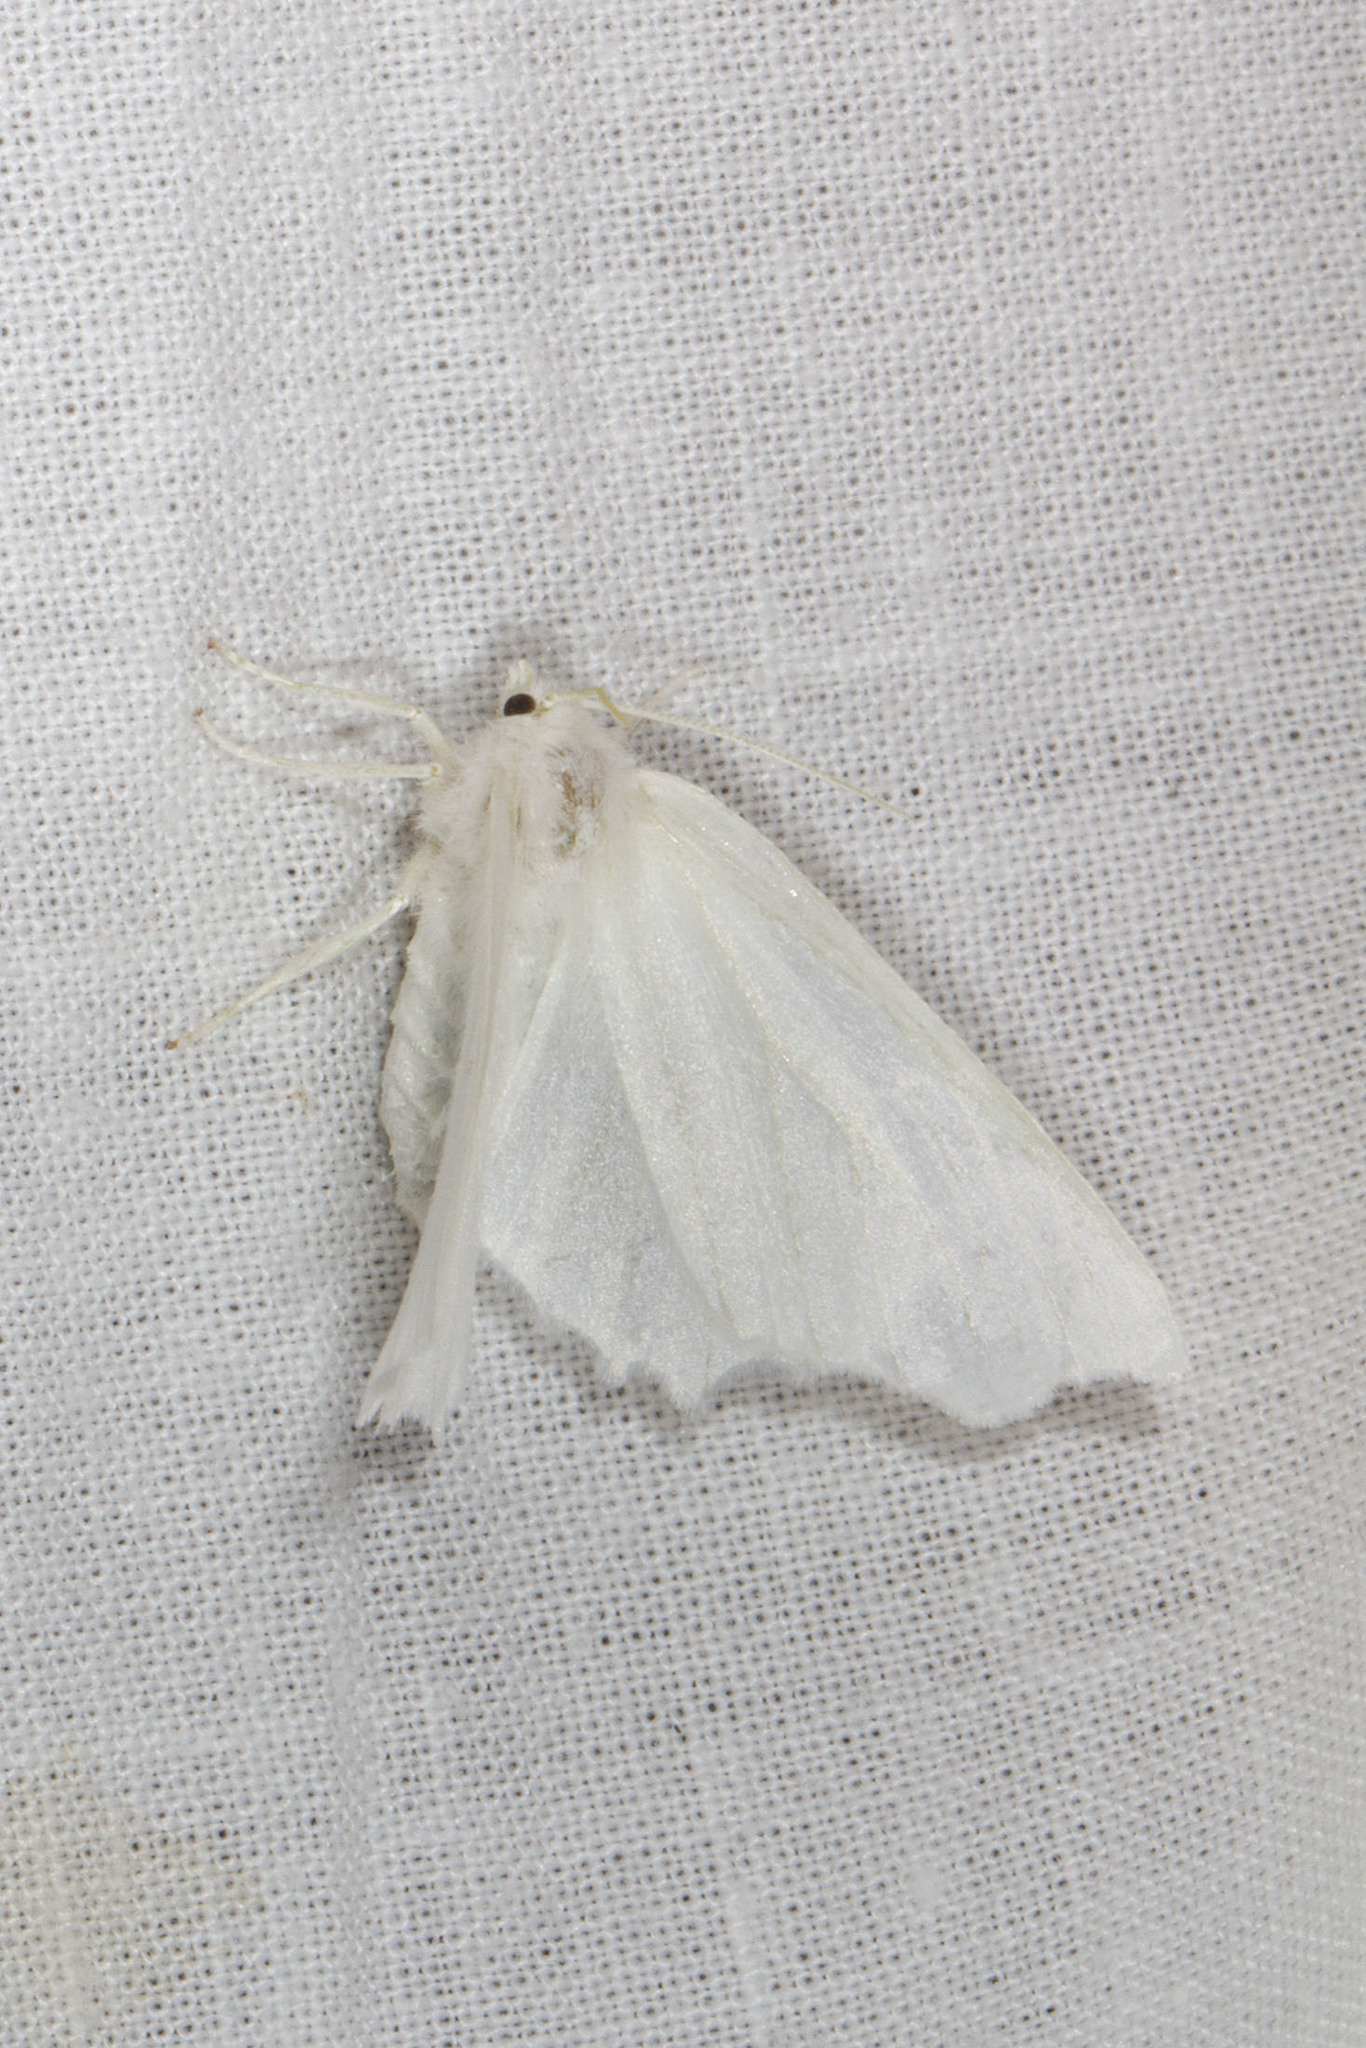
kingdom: Animalia
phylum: Arthropoda
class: Insecta
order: Lepidoptera
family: Geometridae
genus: Ennomos
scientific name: Ennomos subsignaria
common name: Elm spanworm
